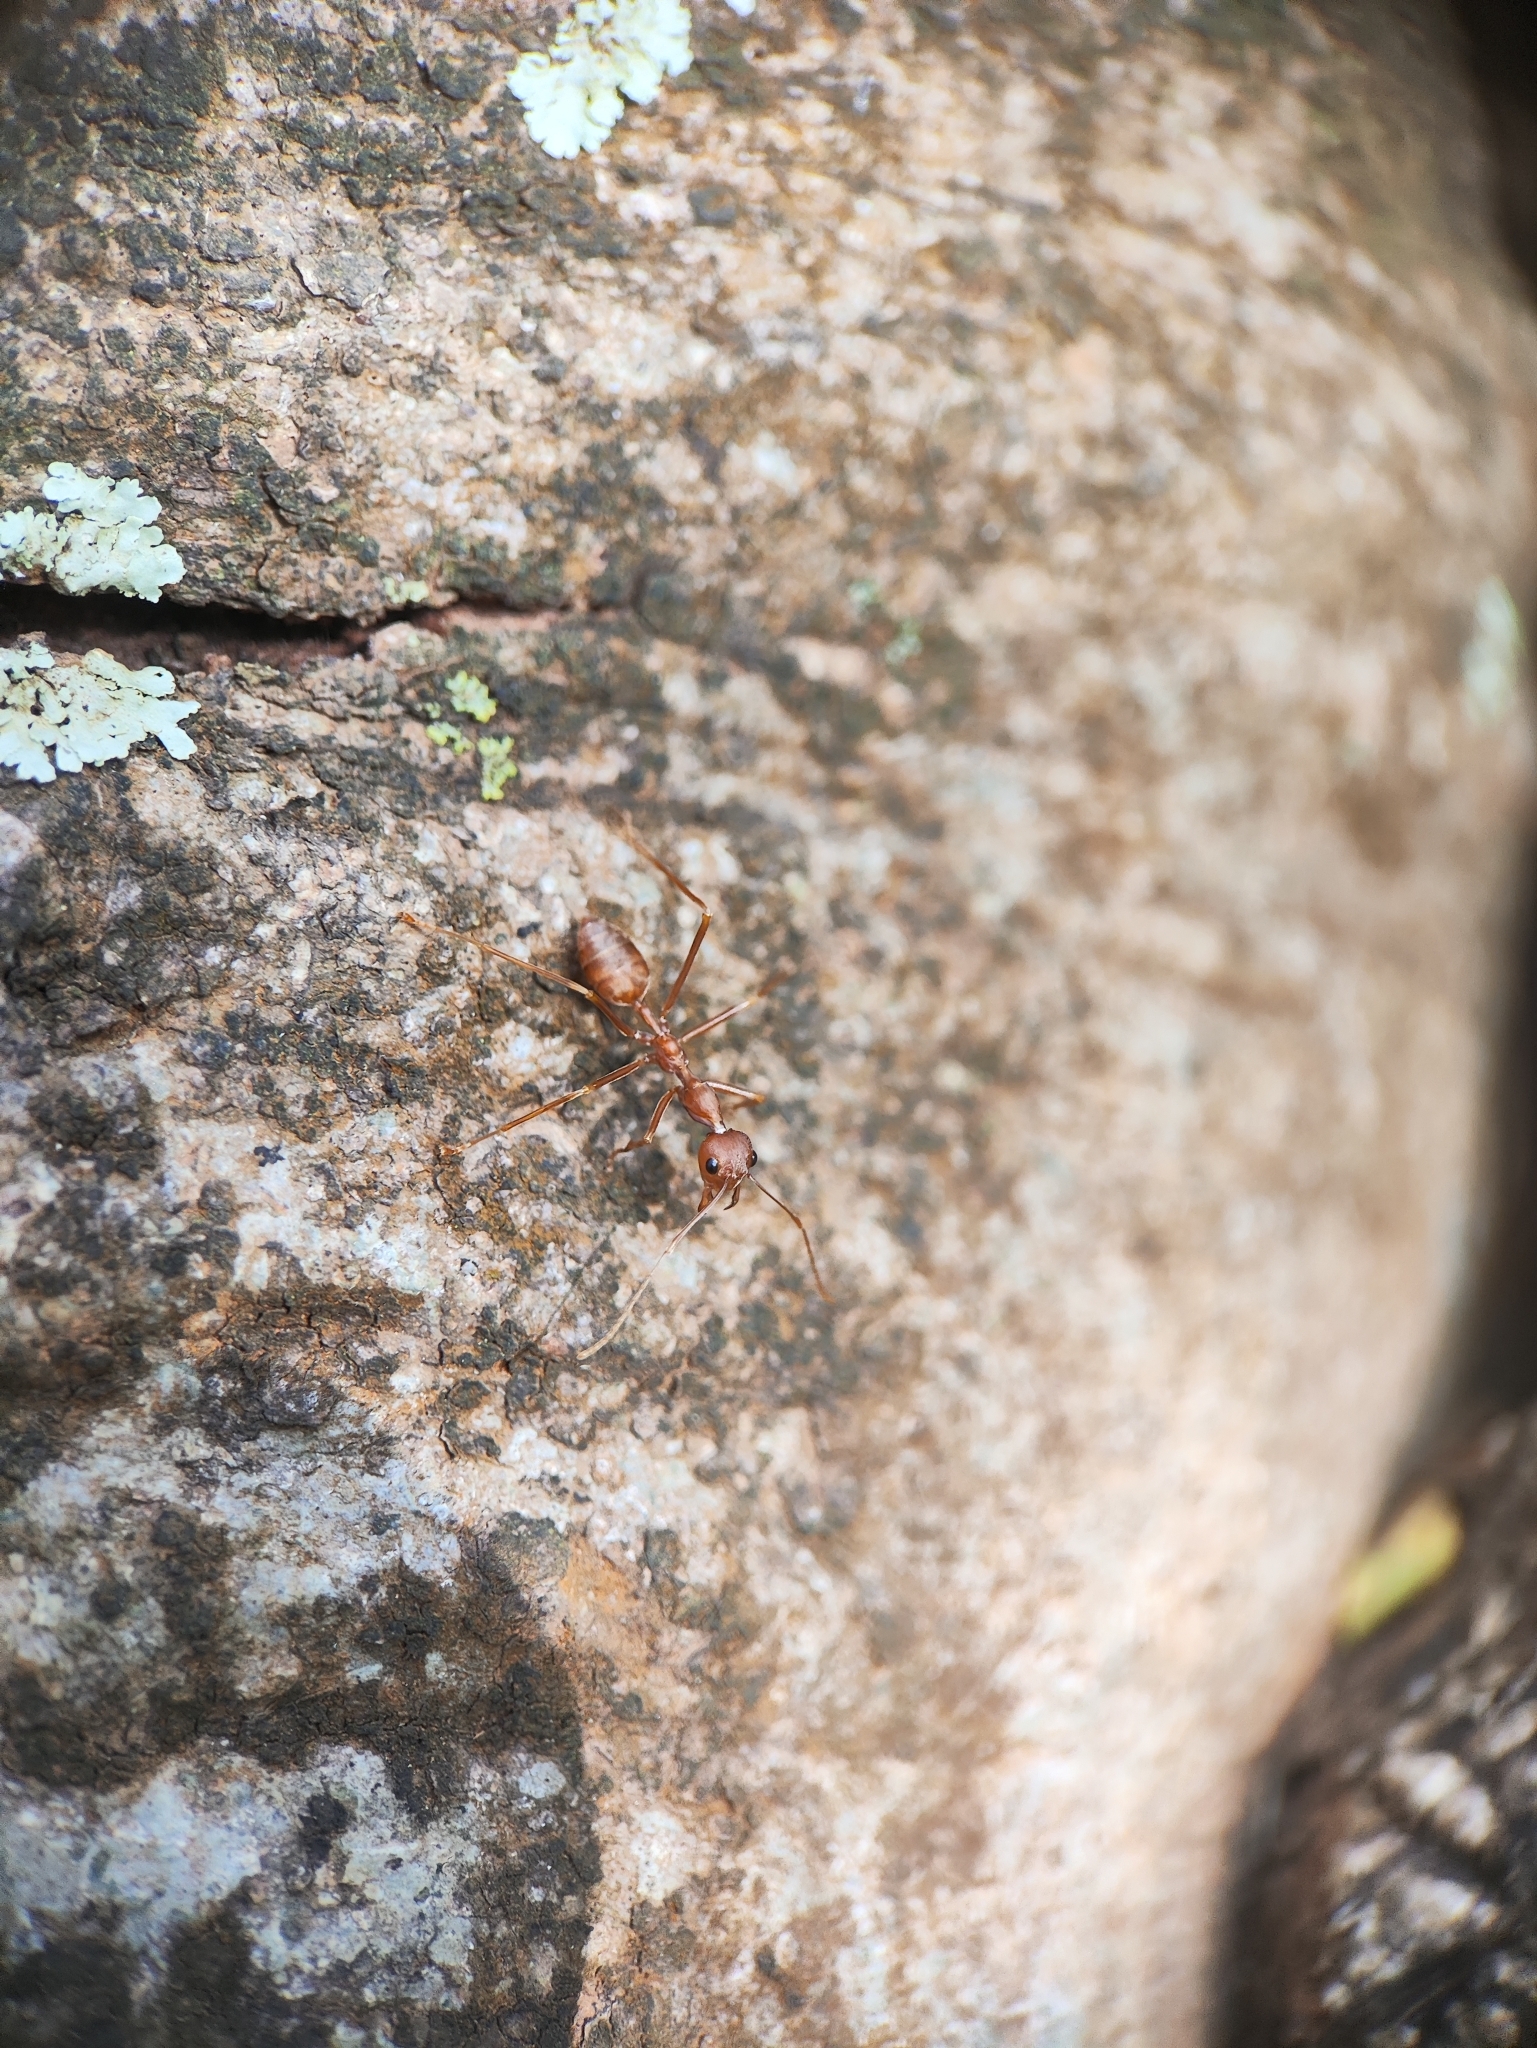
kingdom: Animalia
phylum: Arthropoda
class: Insecta
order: Hymenoptera
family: Formicidae
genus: Oecophylla
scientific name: Oecophylla smaragdina
